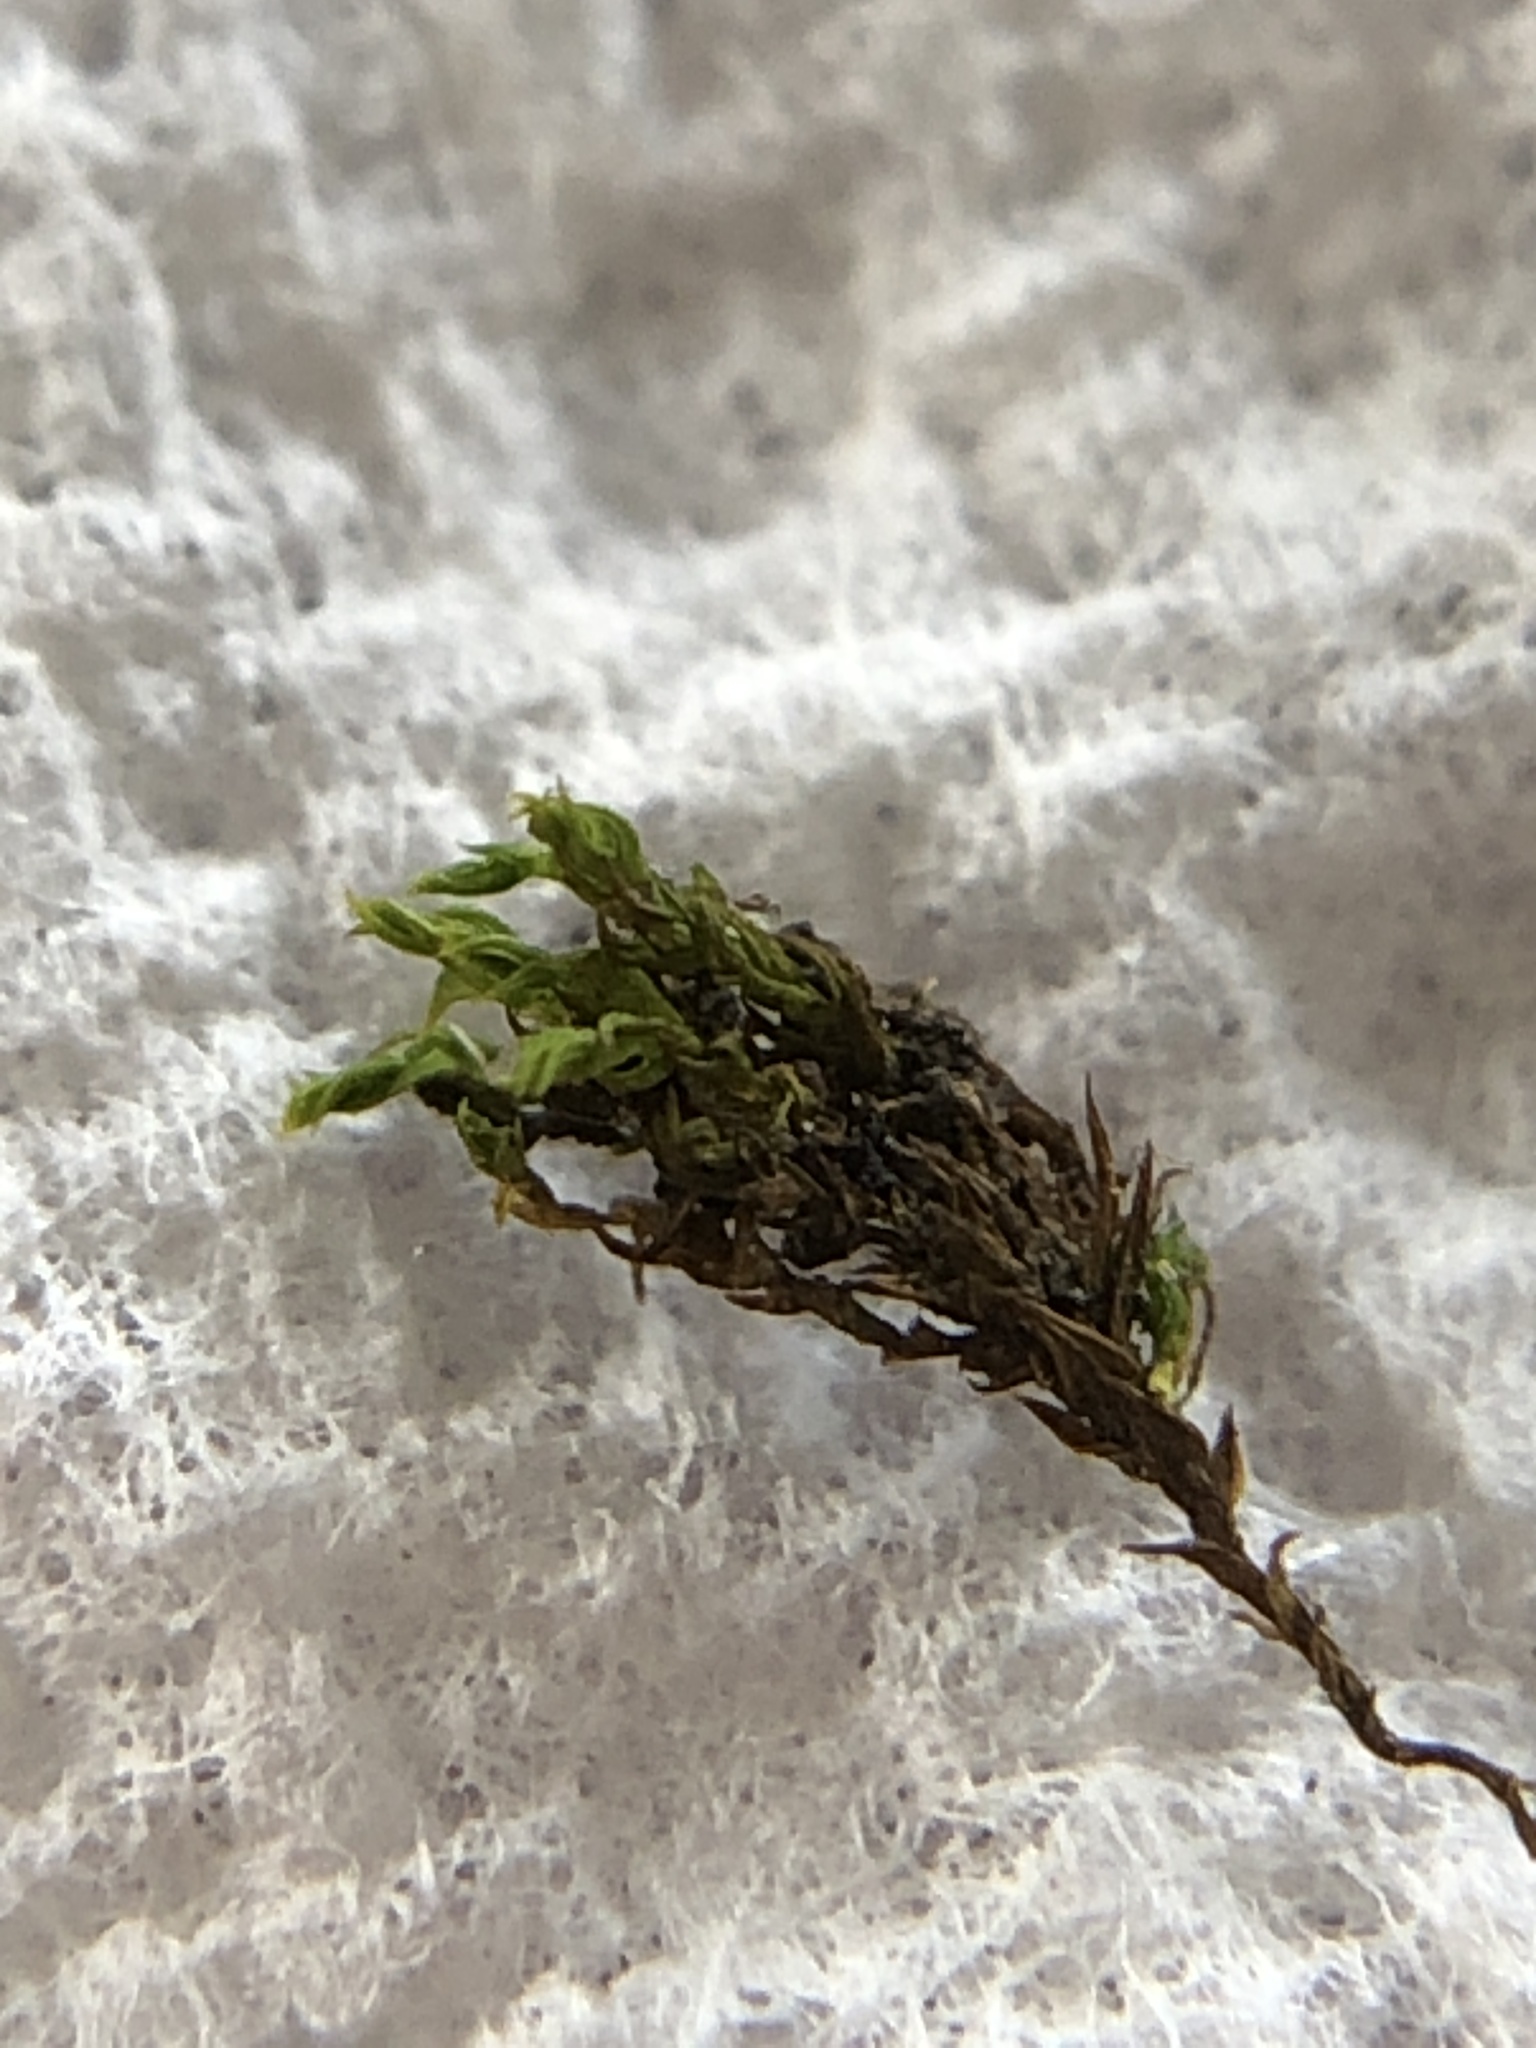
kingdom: Plantae
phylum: Bryophyta
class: Bryopsida
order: Pottiales
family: Pottiaceae
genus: Pseudocrossidium
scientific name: Pseudocrossidium hornschuchianum
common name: Hornschuch's beard-moss
